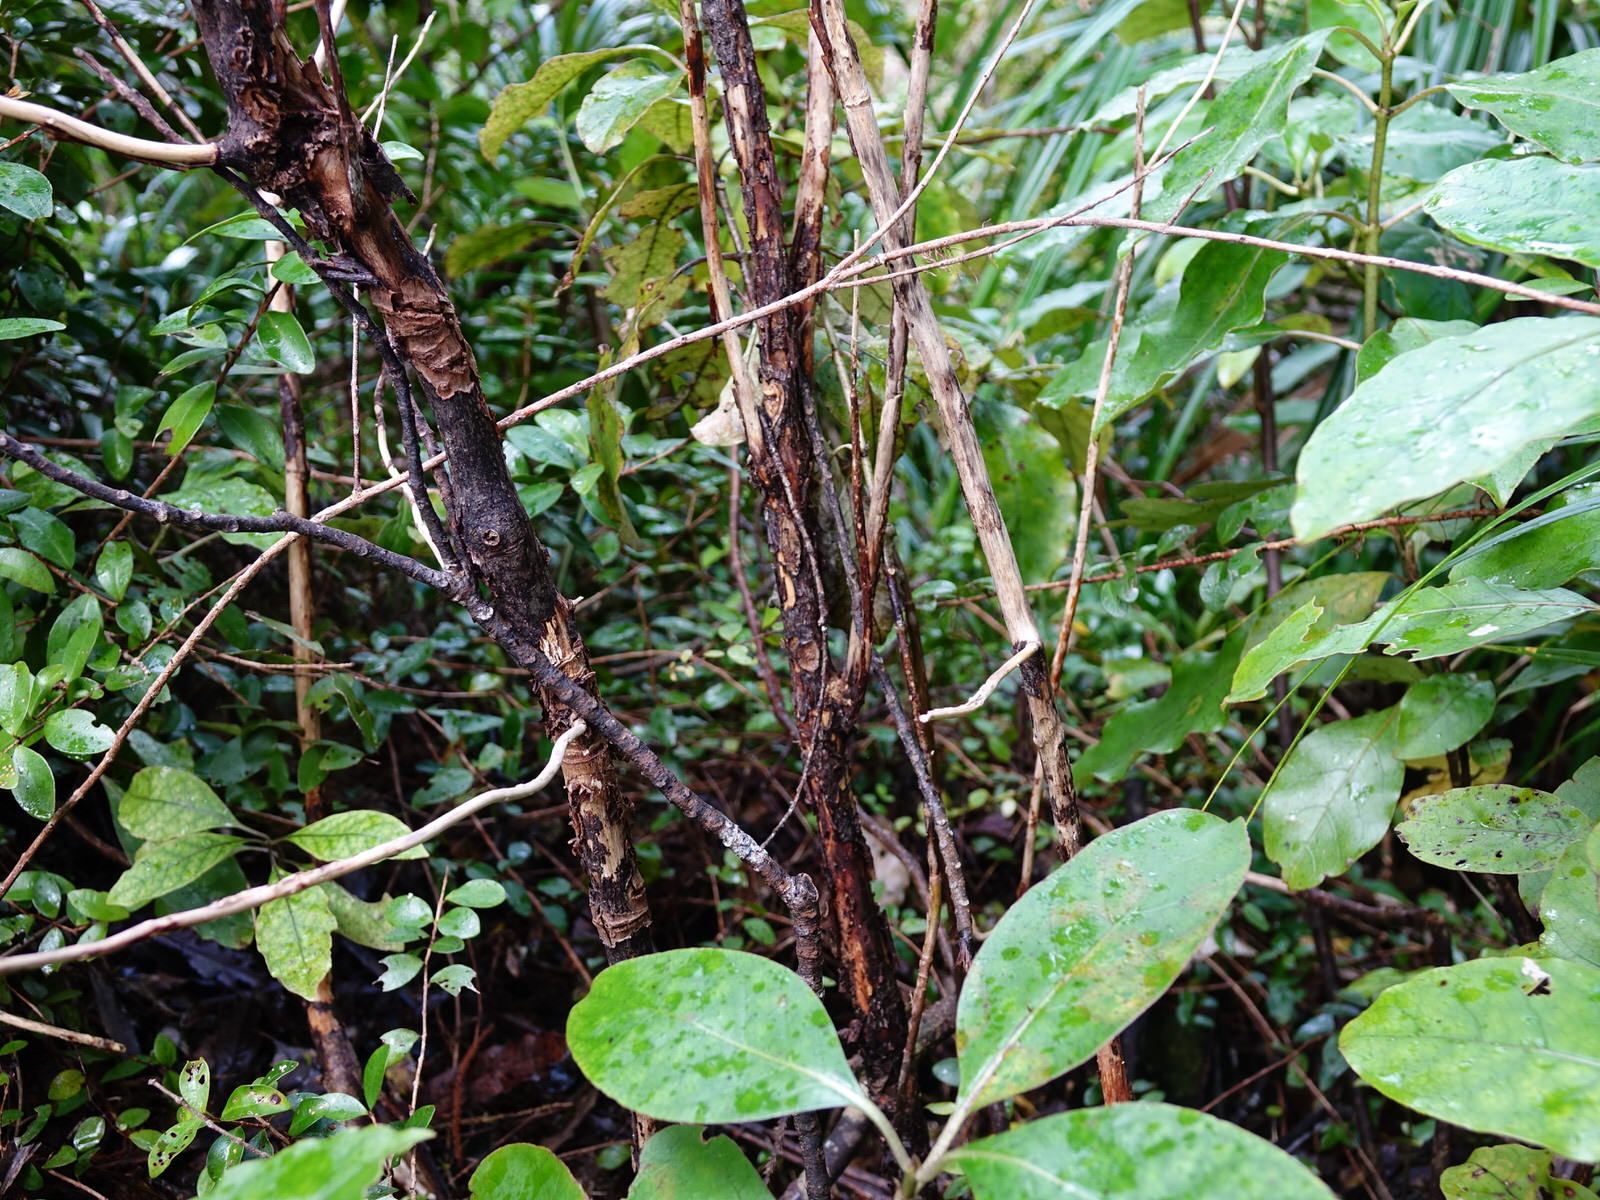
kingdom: Plantae
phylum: Tracheophyta
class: Magnoliopsida
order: Gentianales
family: Rubiaceae
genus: Coprosma
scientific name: Coprosma autumnalis
